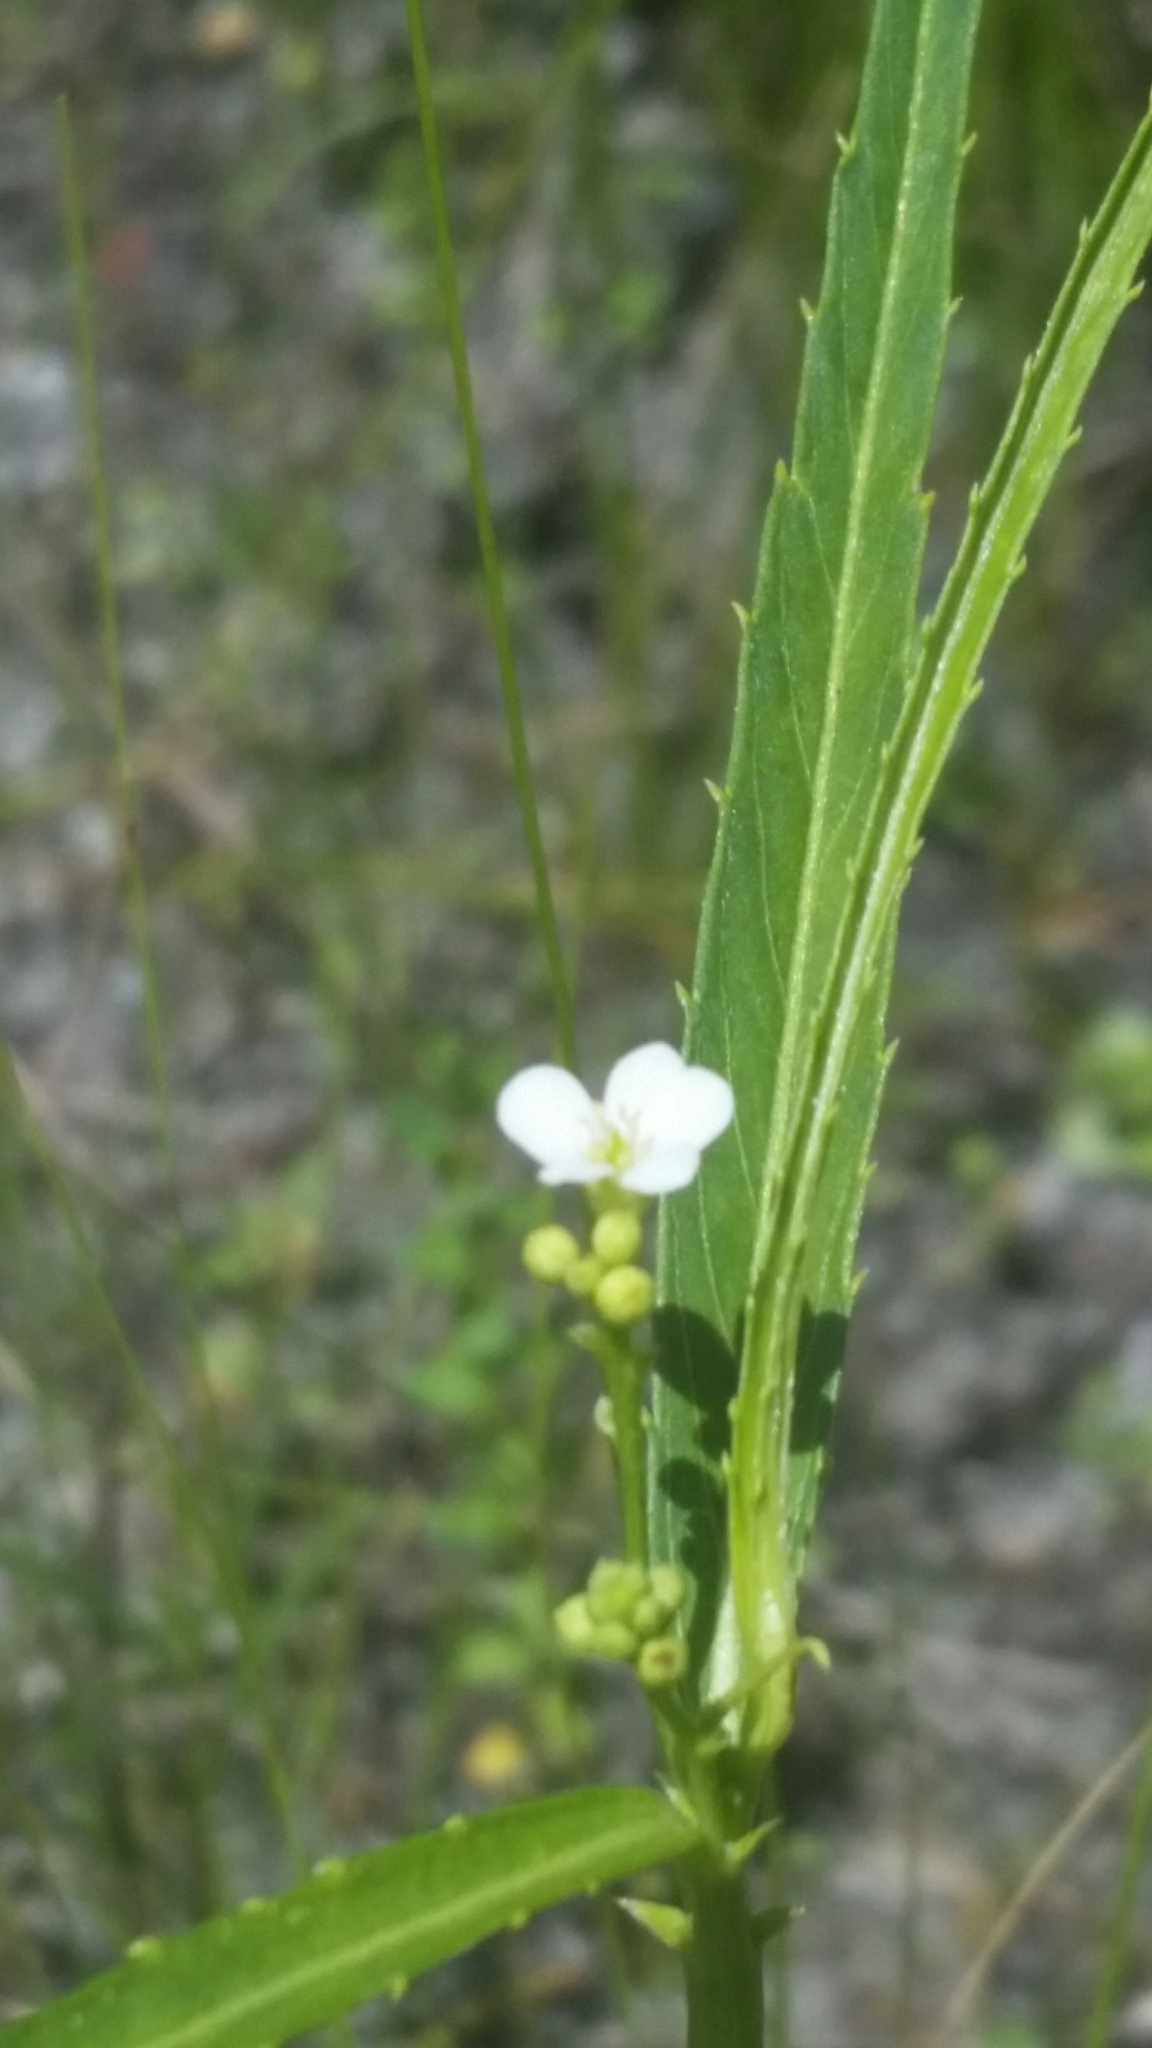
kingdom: Plantae
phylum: Tracheophyta
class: Magnoliopsida
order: Malpighiales
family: Euphorbiaceae
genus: Caperonia
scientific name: Caperonia castaneifolia
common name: Chestnutleaf false croton
